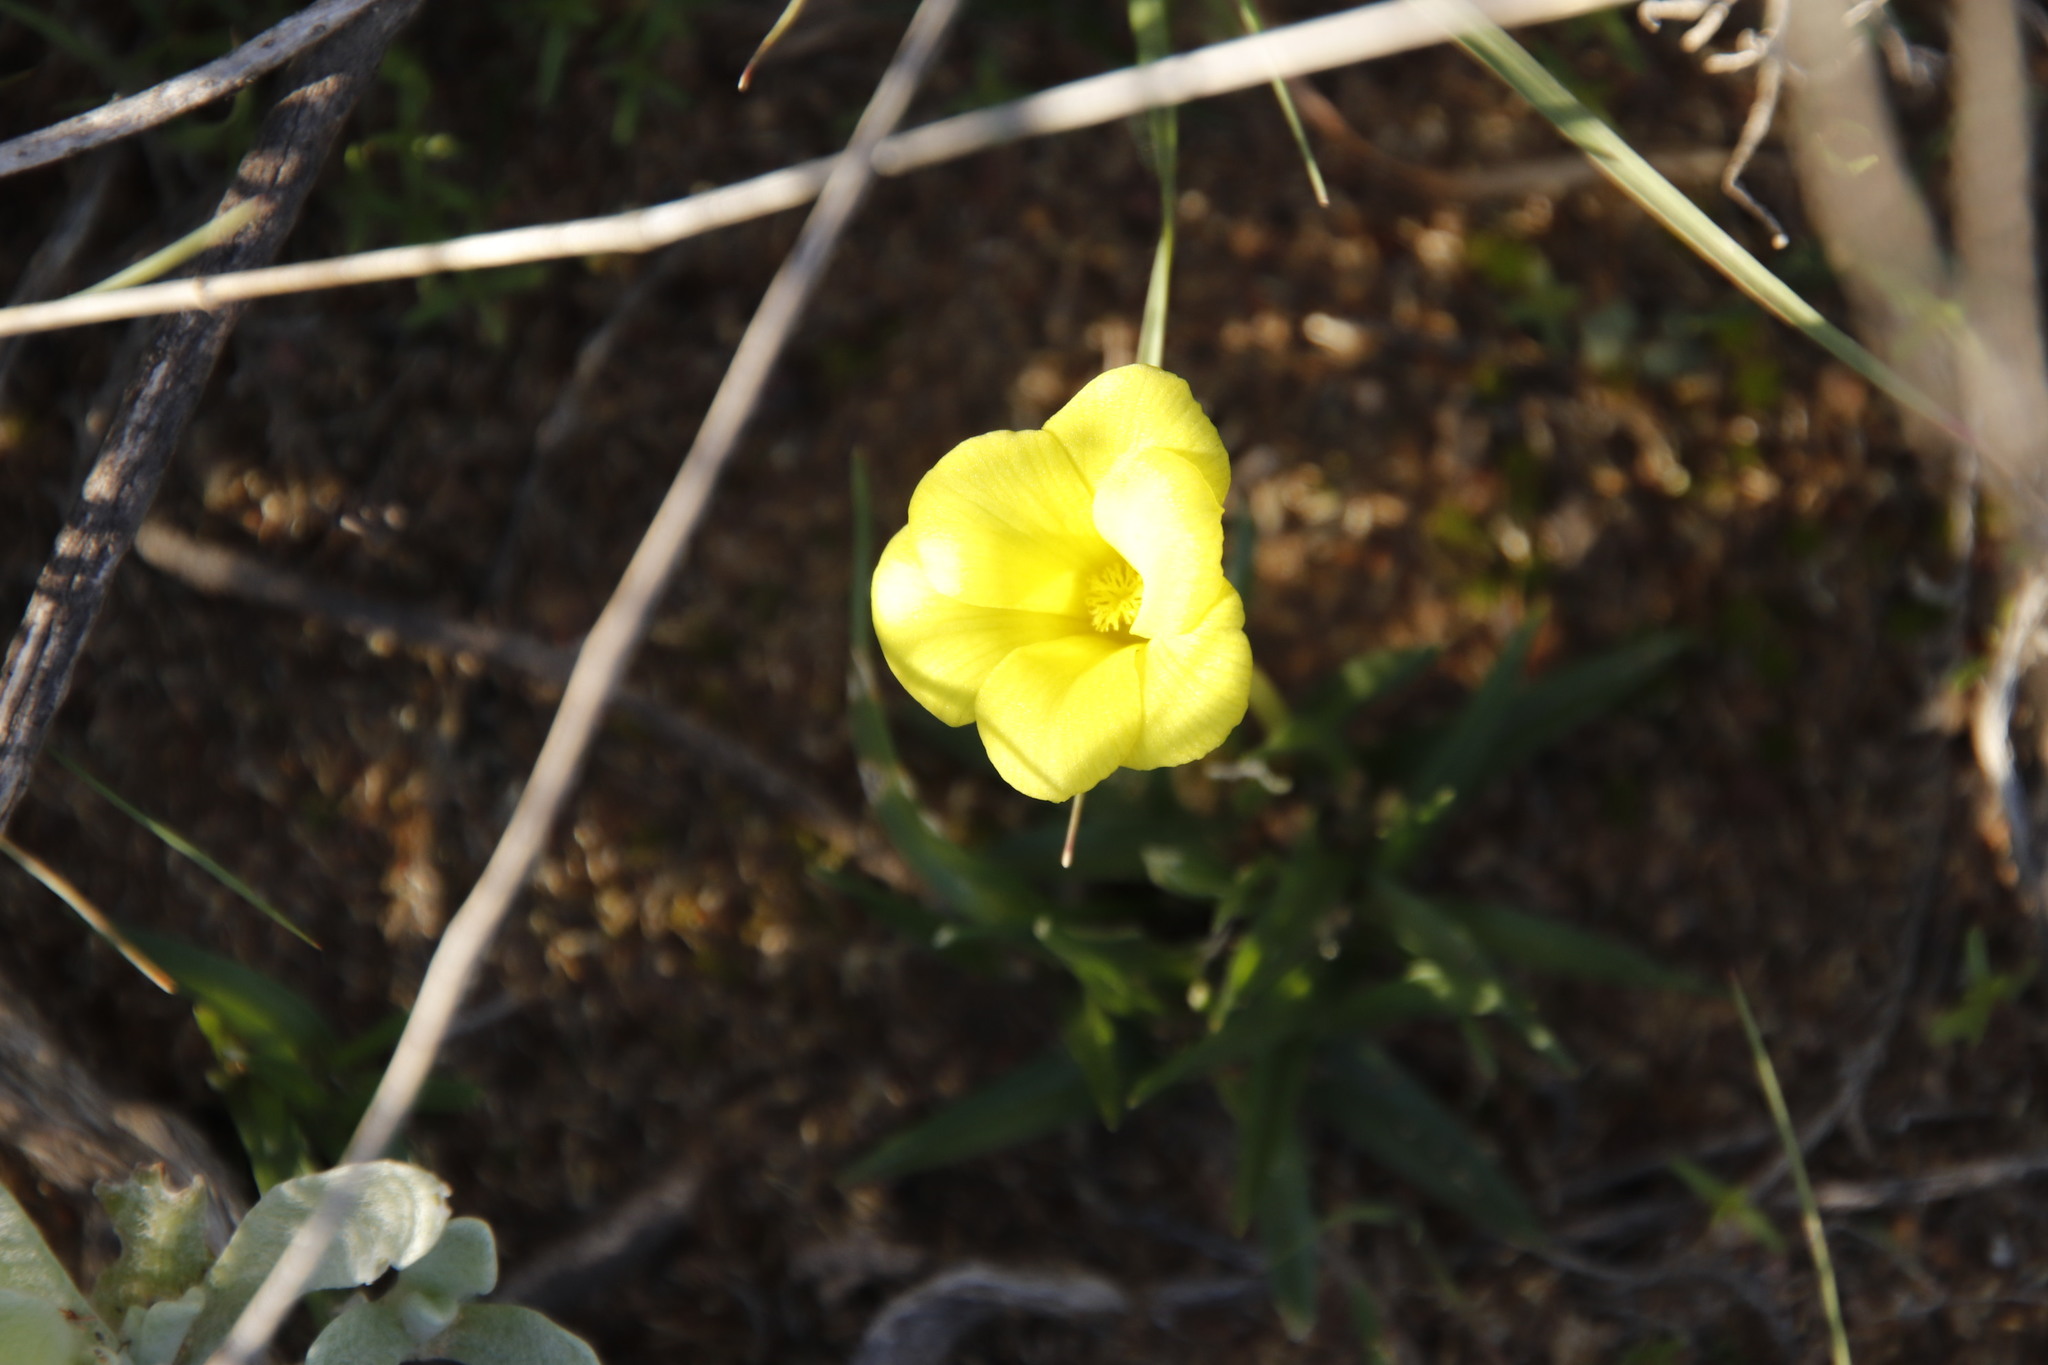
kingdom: Plantae
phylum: Tracheophyta
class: Liliopsida
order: Asparagales
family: Iridaceae
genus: Moraea
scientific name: Moraea fugacissima
